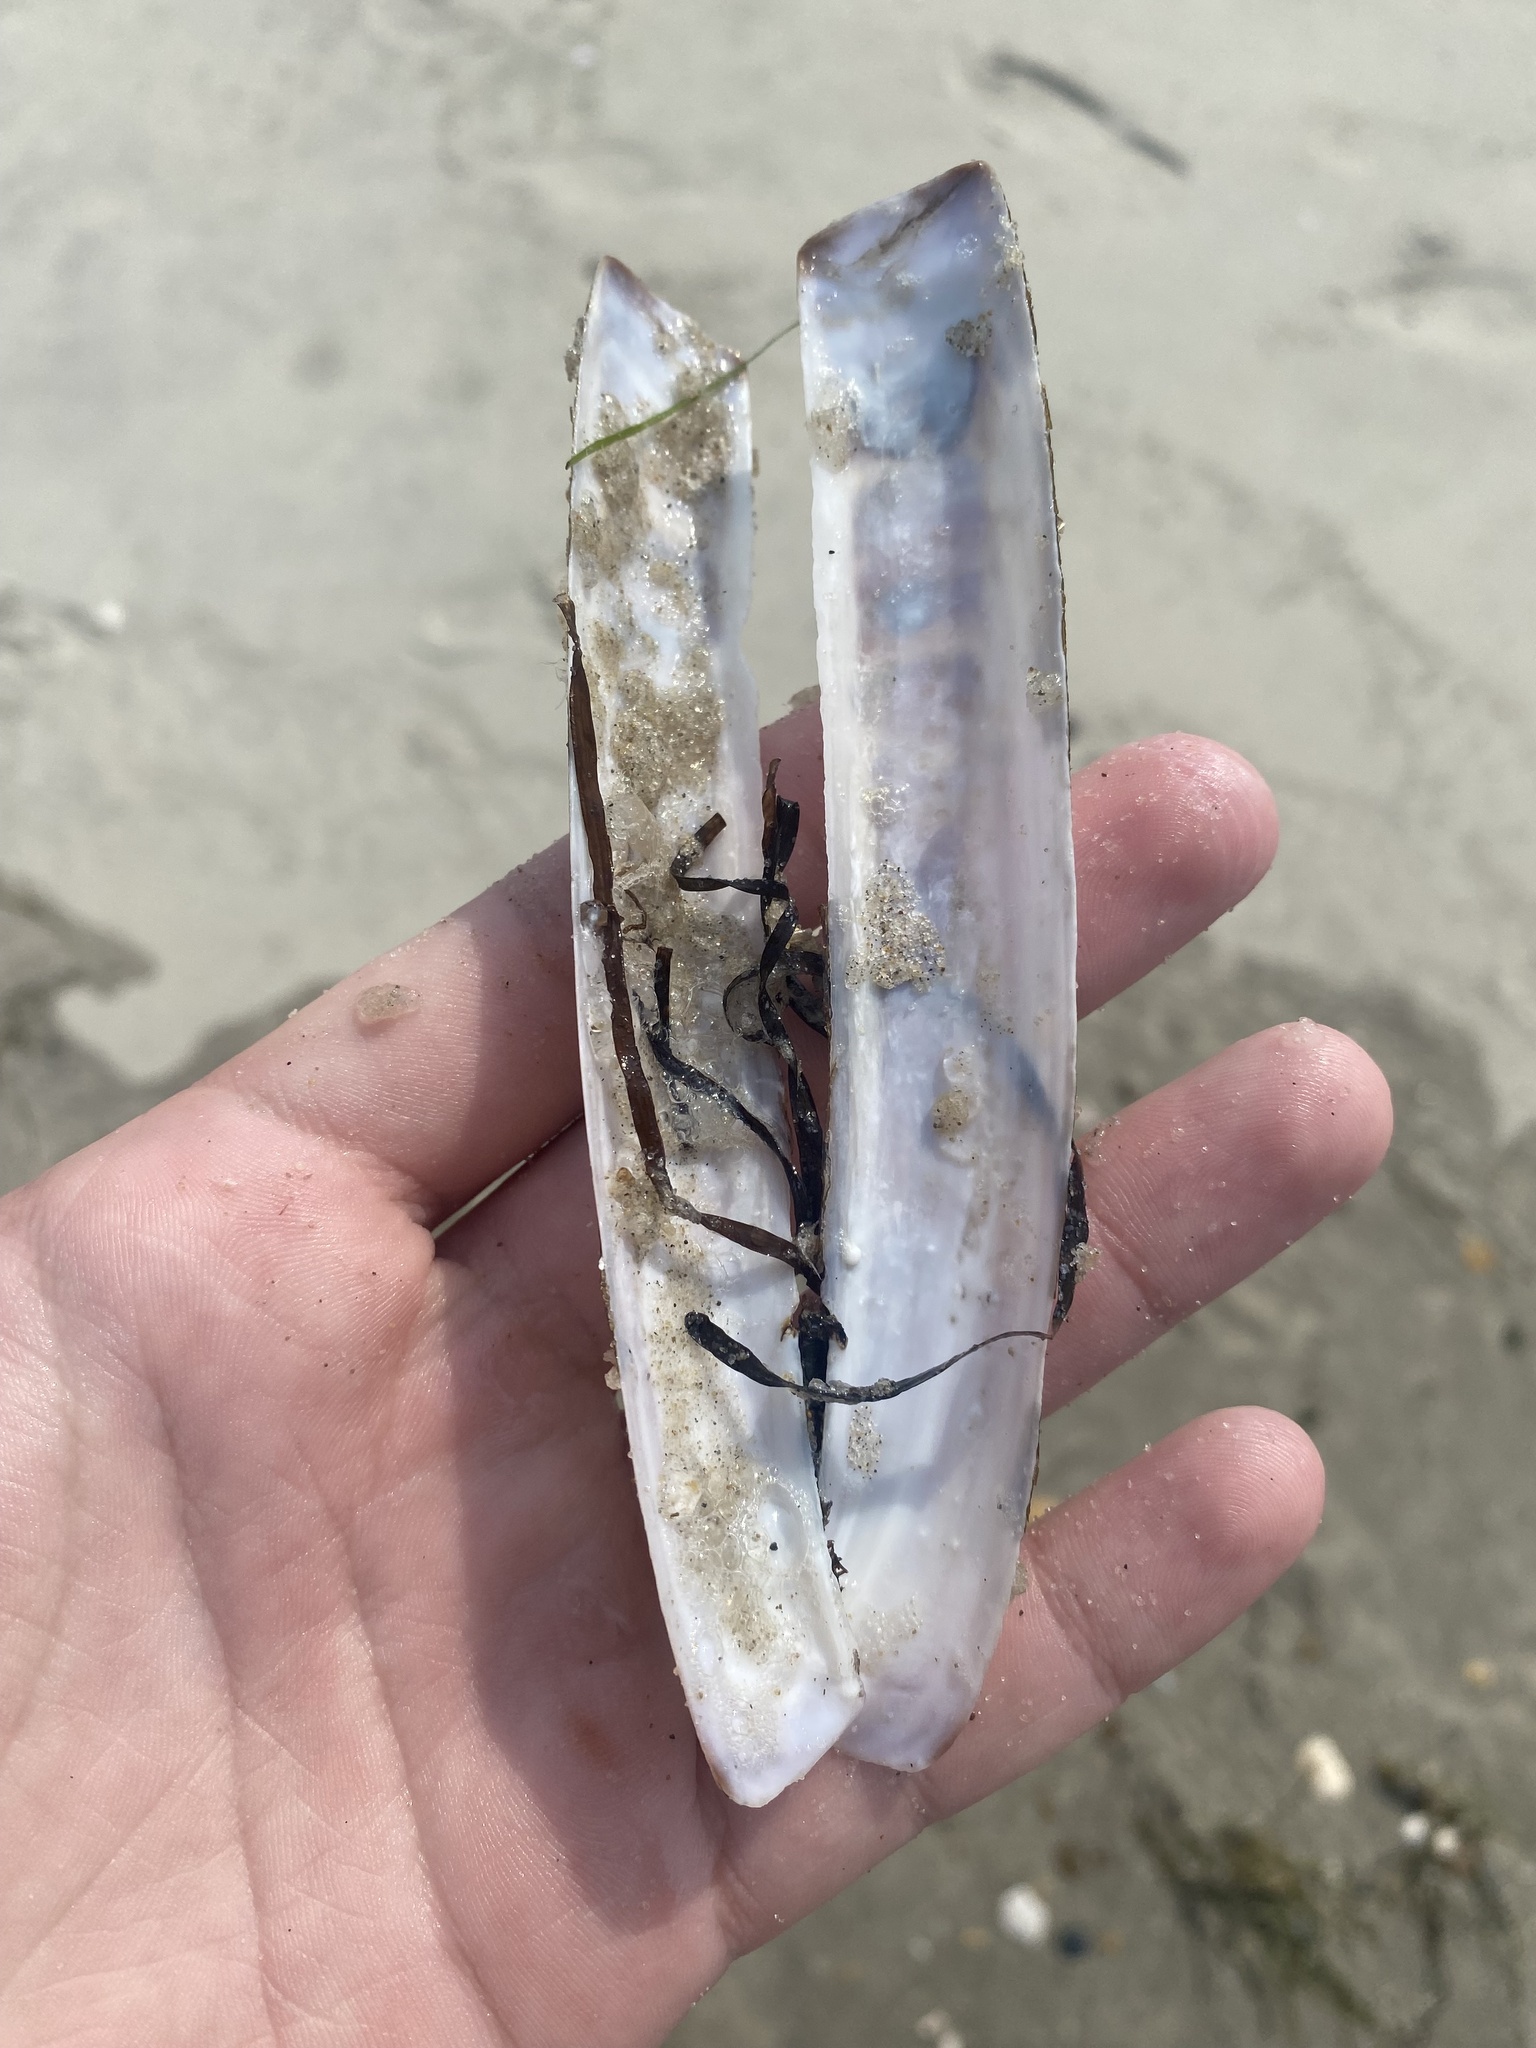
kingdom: Animalia
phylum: Mollusca
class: Bivalvia
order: Adapedonta
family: Pharidae
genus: Ensis
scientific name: Ensis leei
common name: American jack knife clam
